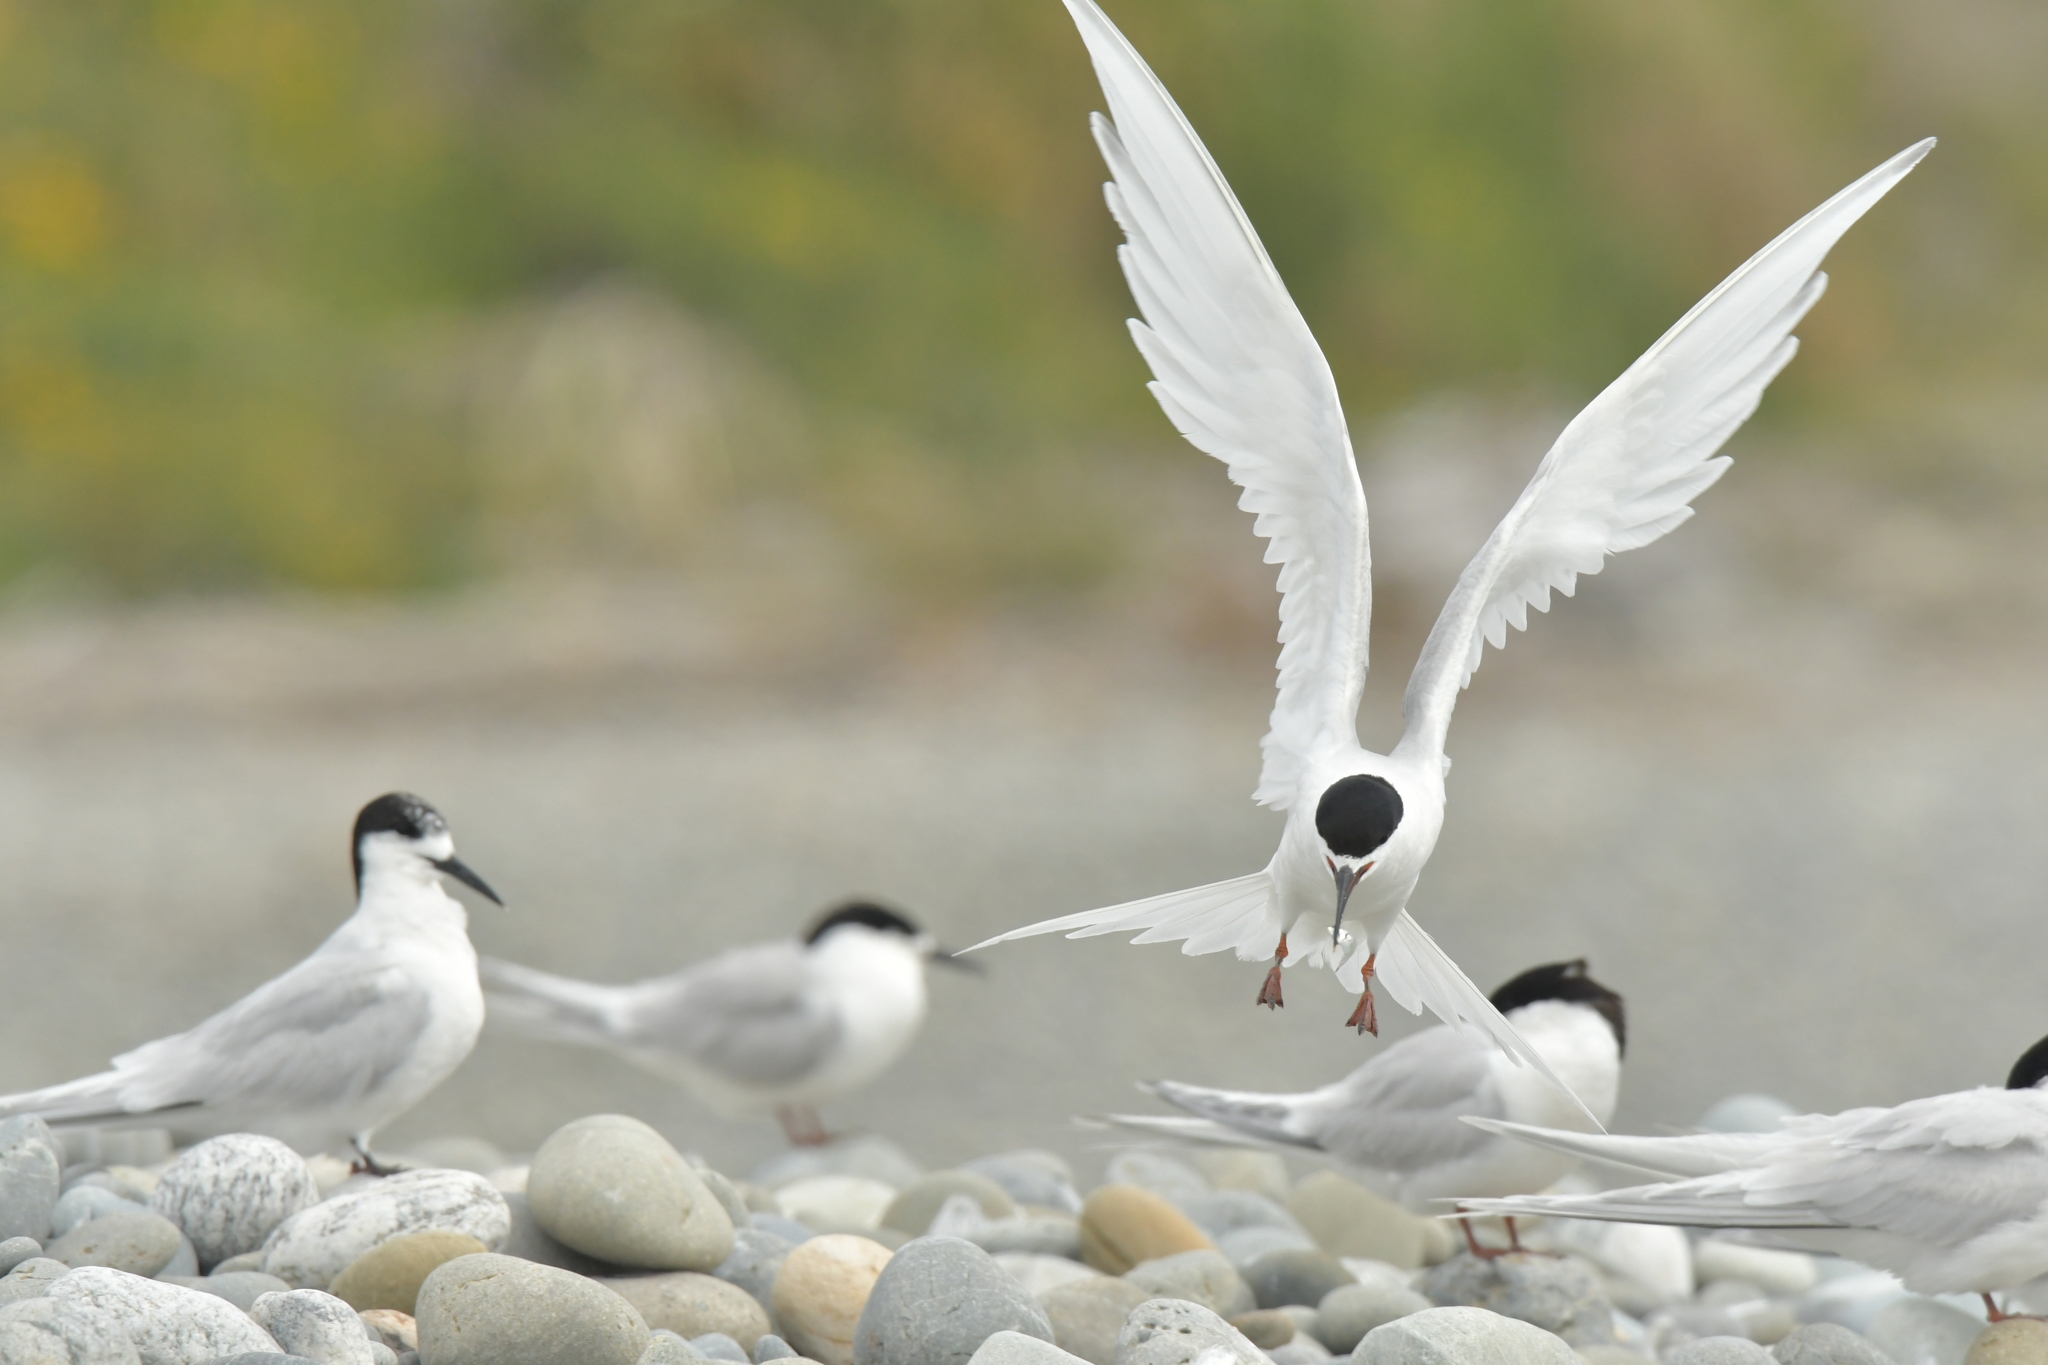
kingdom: Animalia
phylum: Chordata
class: Aves
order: Charadriiformes
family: Laridae
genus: Sterna
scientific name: Sterna striata
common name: White-fronted tern
